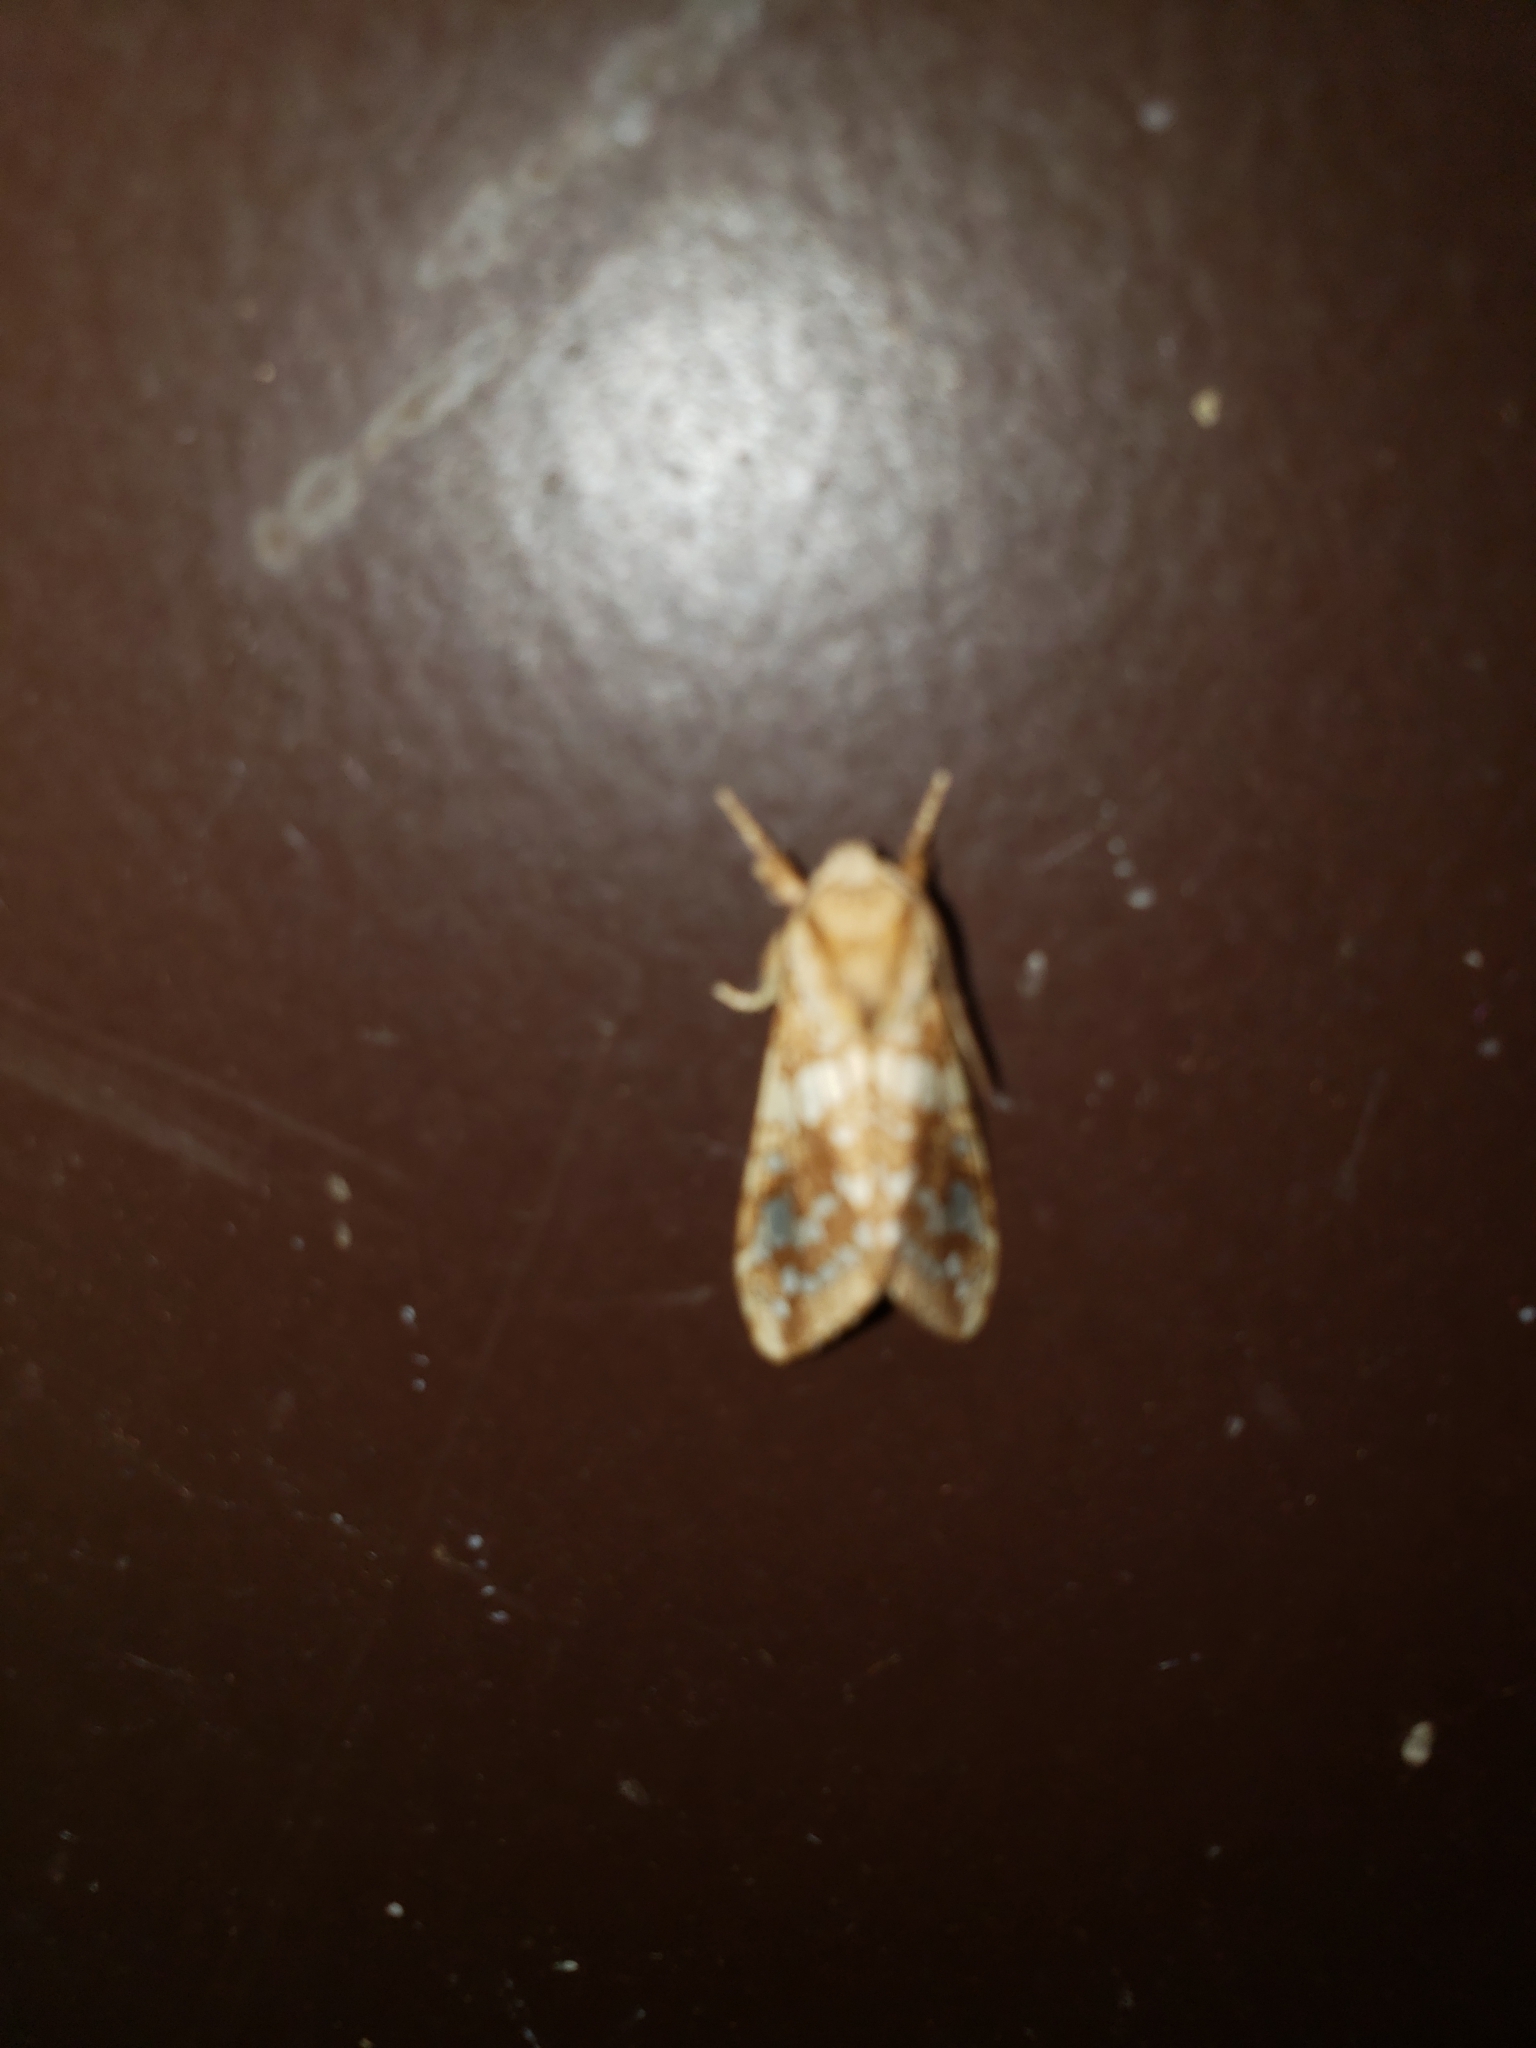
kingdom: Animalia
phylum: Arthropoda
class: Insecta
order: Lepidoptera
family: Erebidae
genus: Lophocampa
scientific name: Lophocampa caryae
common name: Hickory tussock moth
